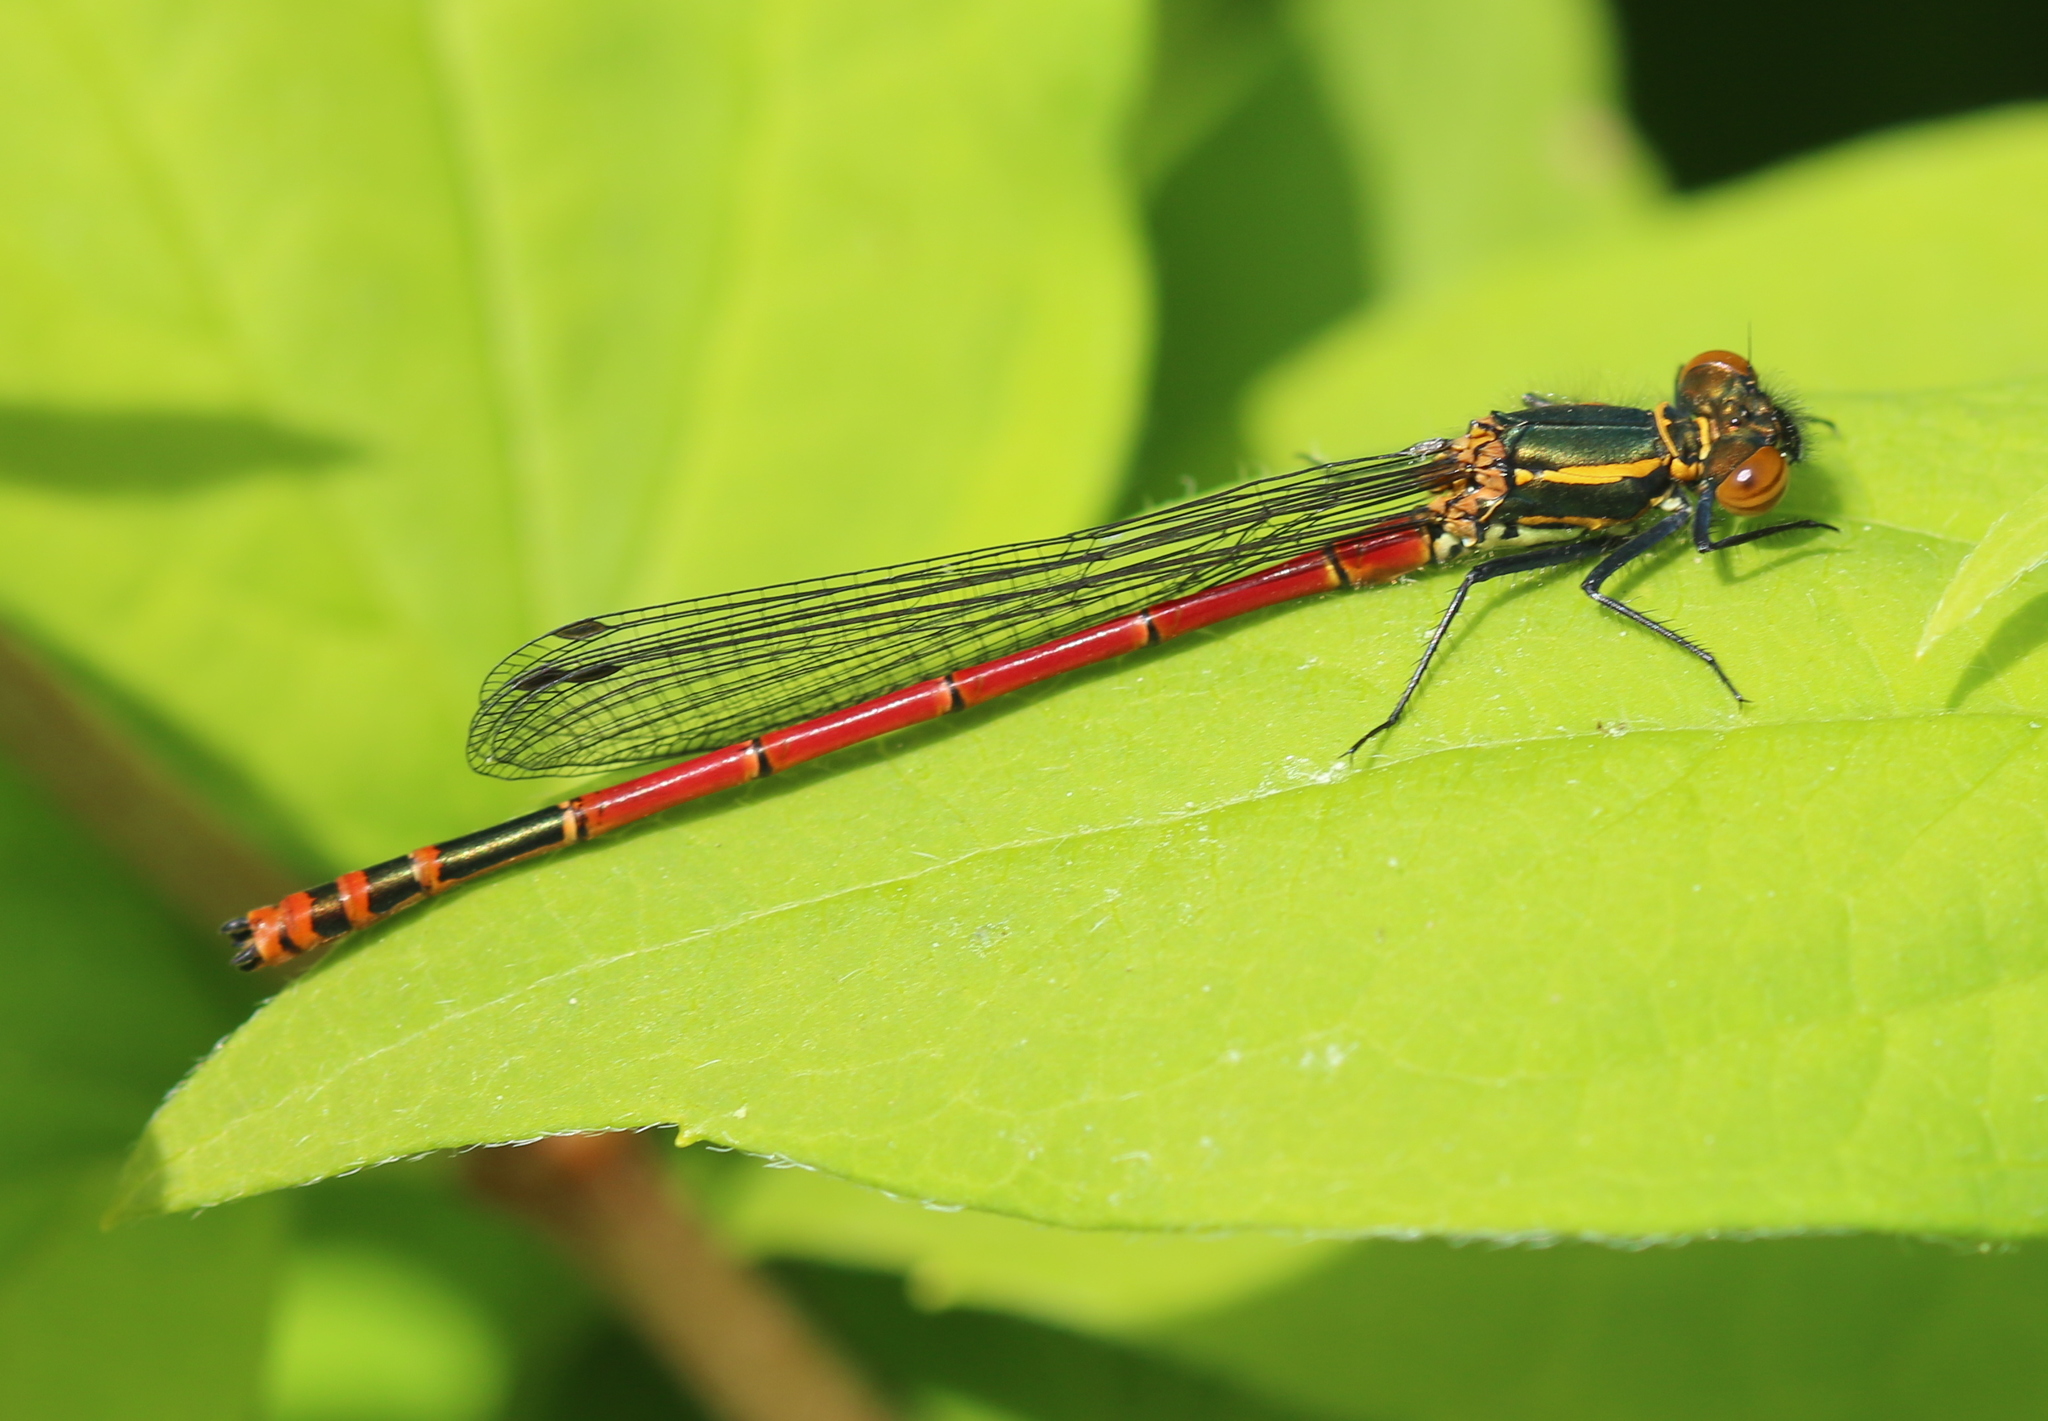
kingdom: Animalia
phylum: Arthropoda
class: Insecta
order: Odonata
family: Coenagrionidae
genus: Pyrrhosoma
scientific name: Pyrrhosoma nymphula
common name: Large red damsel
